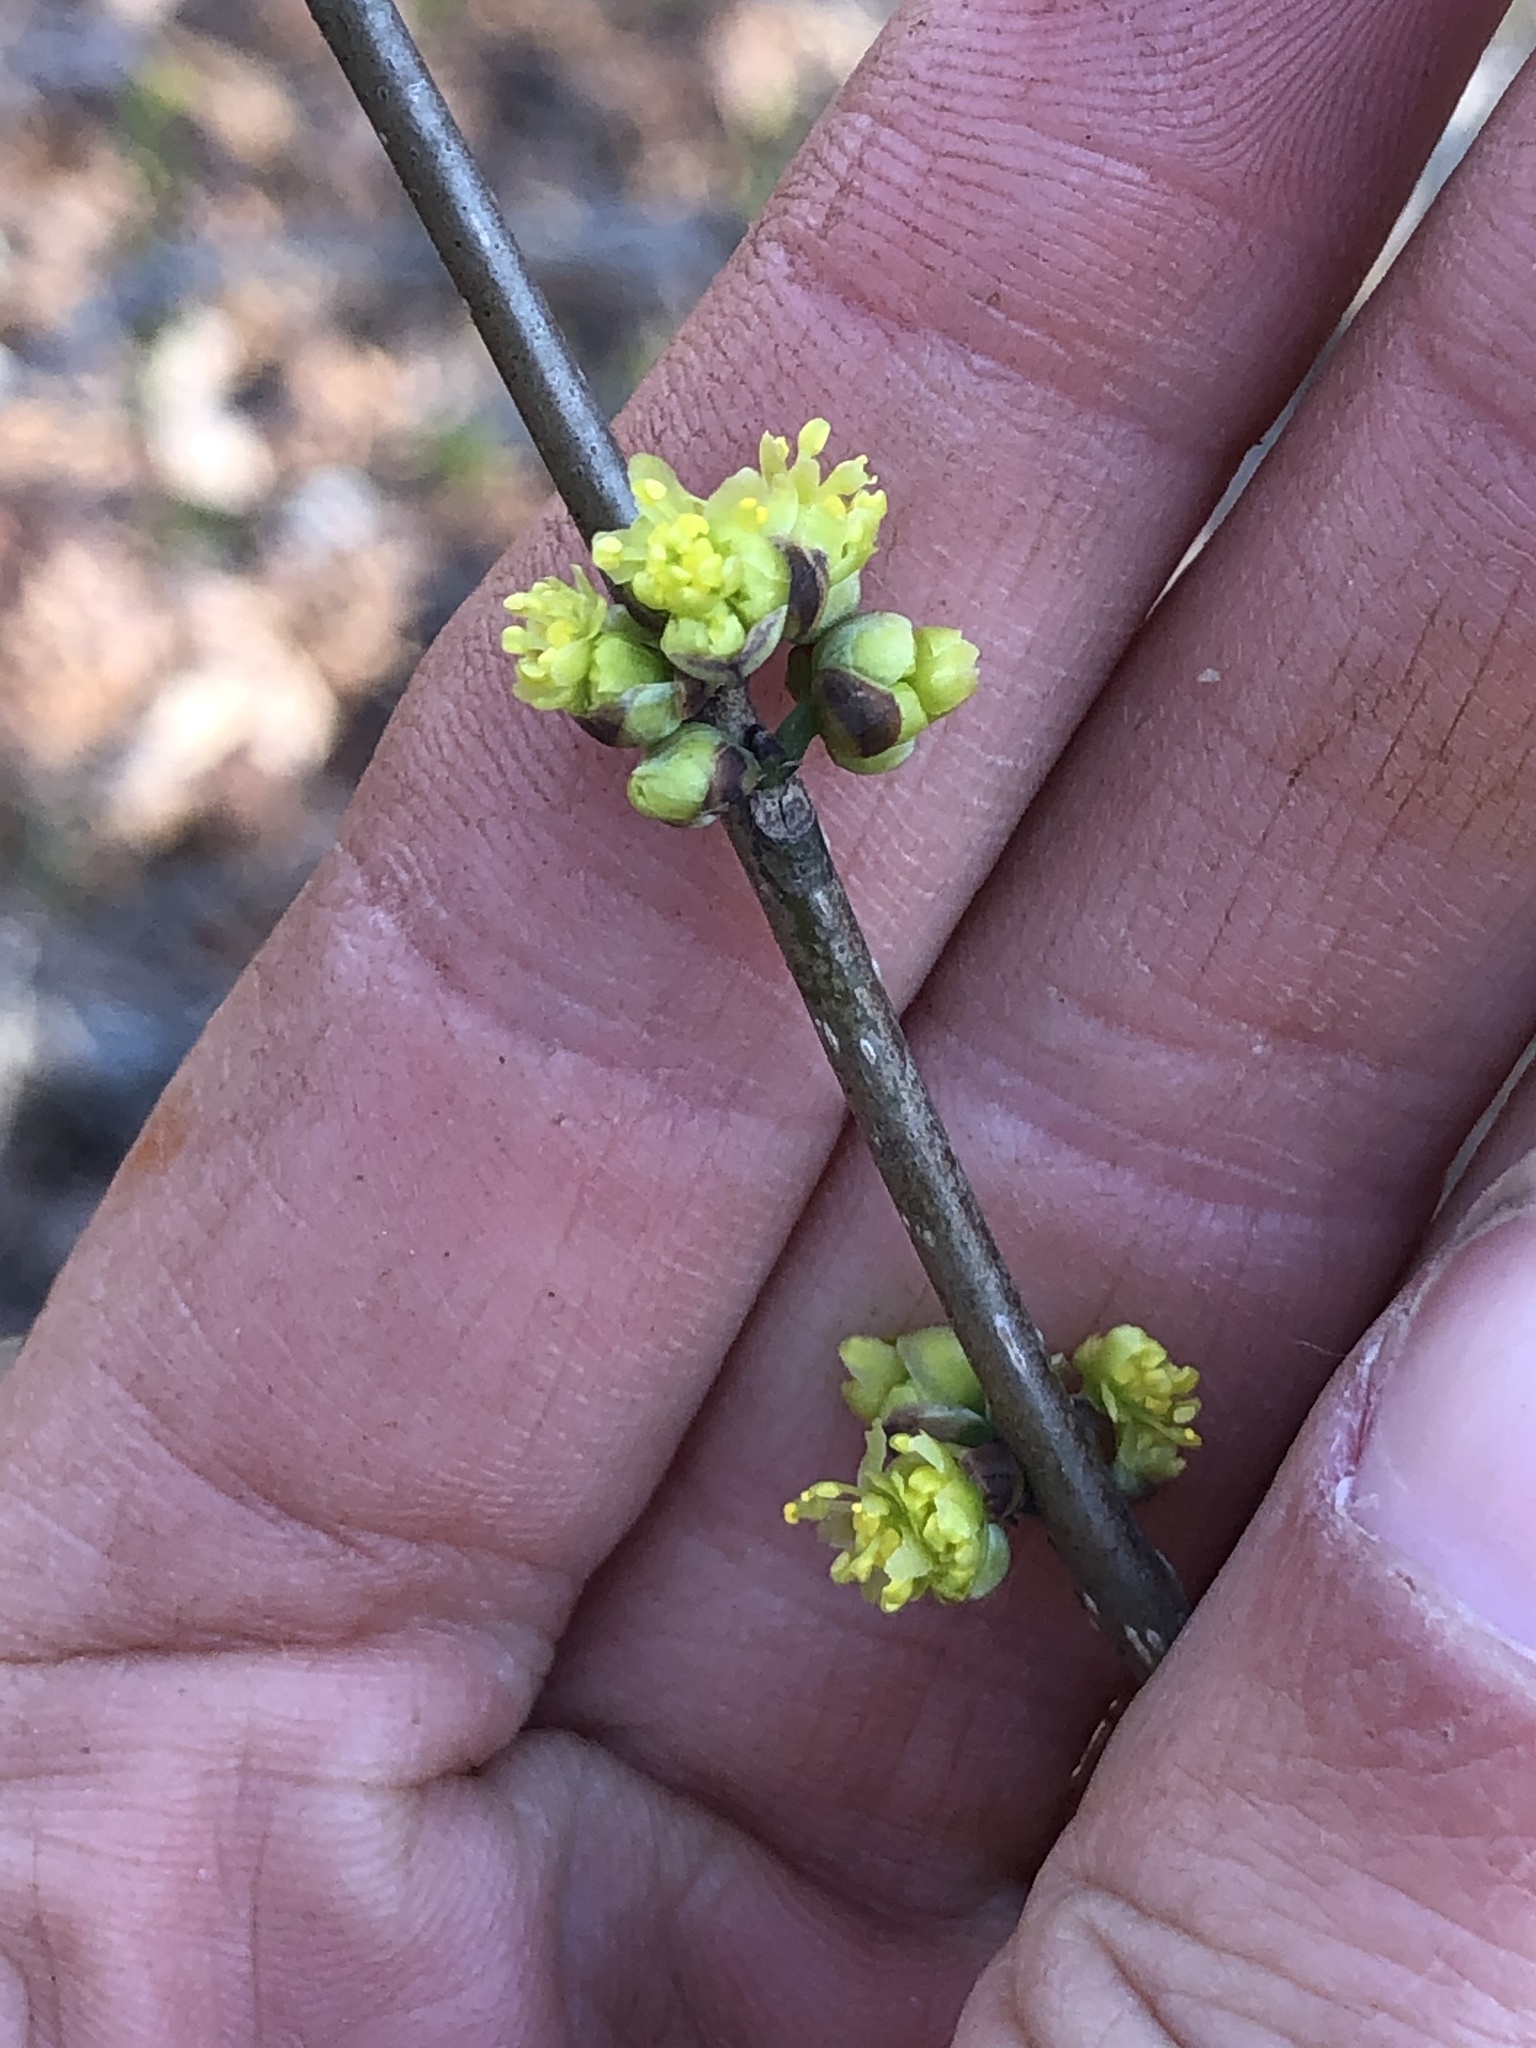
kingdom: Plantae
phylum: Tracheophyta
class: Magnoliopsida
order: Laurales
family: Lauraceae
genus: Lindera
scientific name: Lindera benzoin
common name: Spicebush
